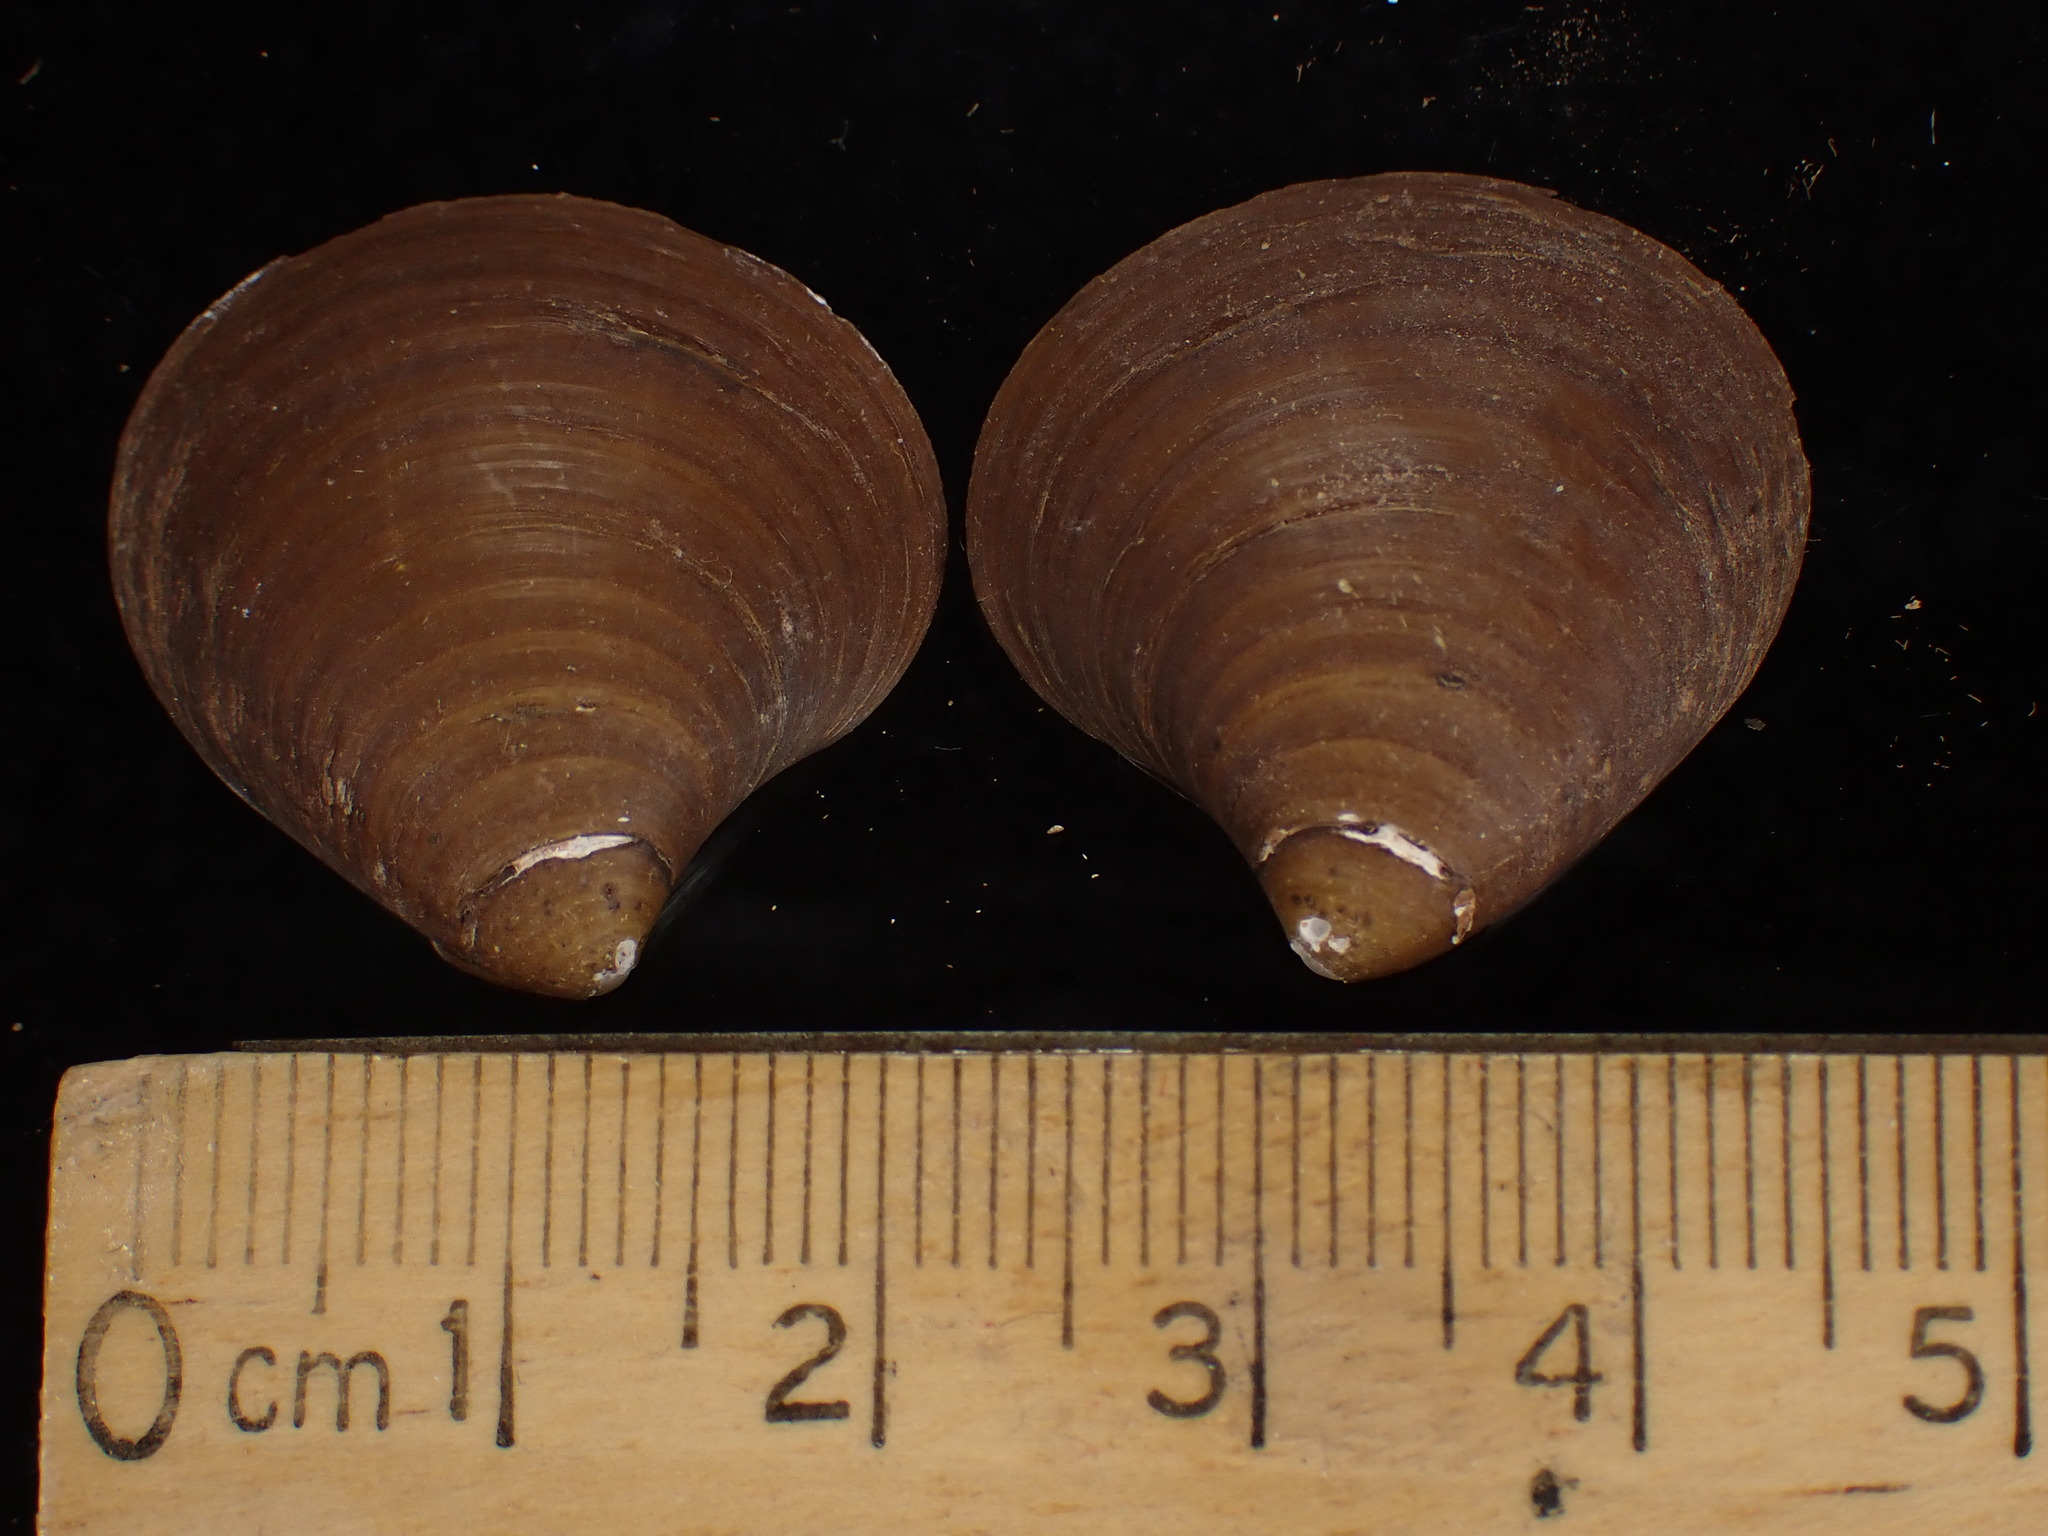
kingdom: Animalia
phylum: Mollusca
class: Bivalvia
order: Carditida
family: Astartidae
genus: Astarte
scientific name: Astarte undata
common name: Wavy astarte
